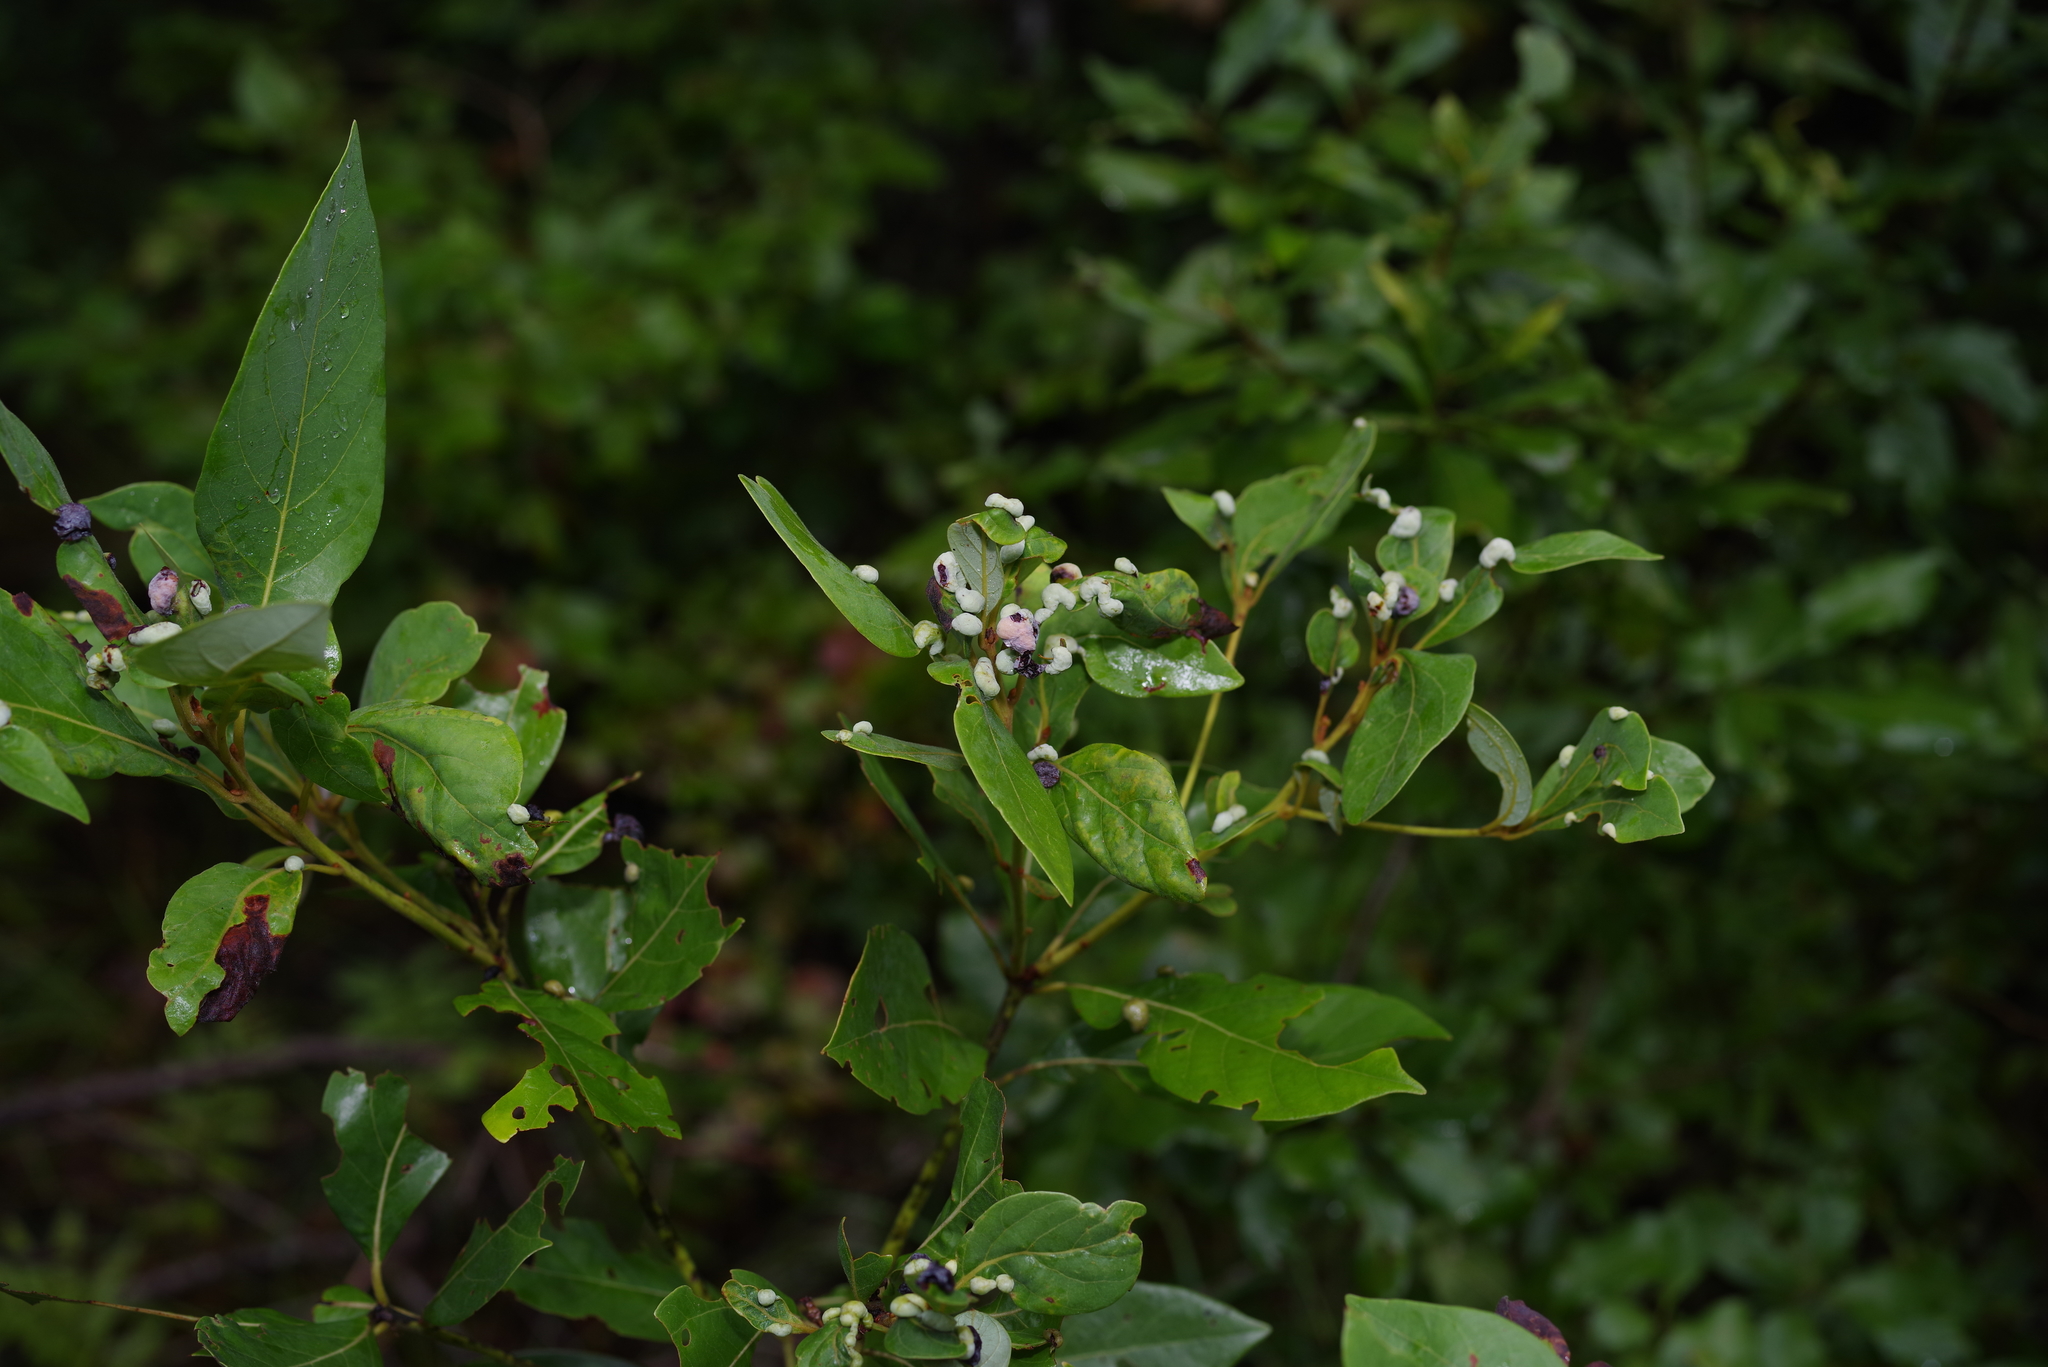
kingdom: Animalia
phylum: Arthropoda
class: Insecta
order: Hemiptera
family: Triozidae
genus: Trioza
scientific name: Trioza magnoliae
